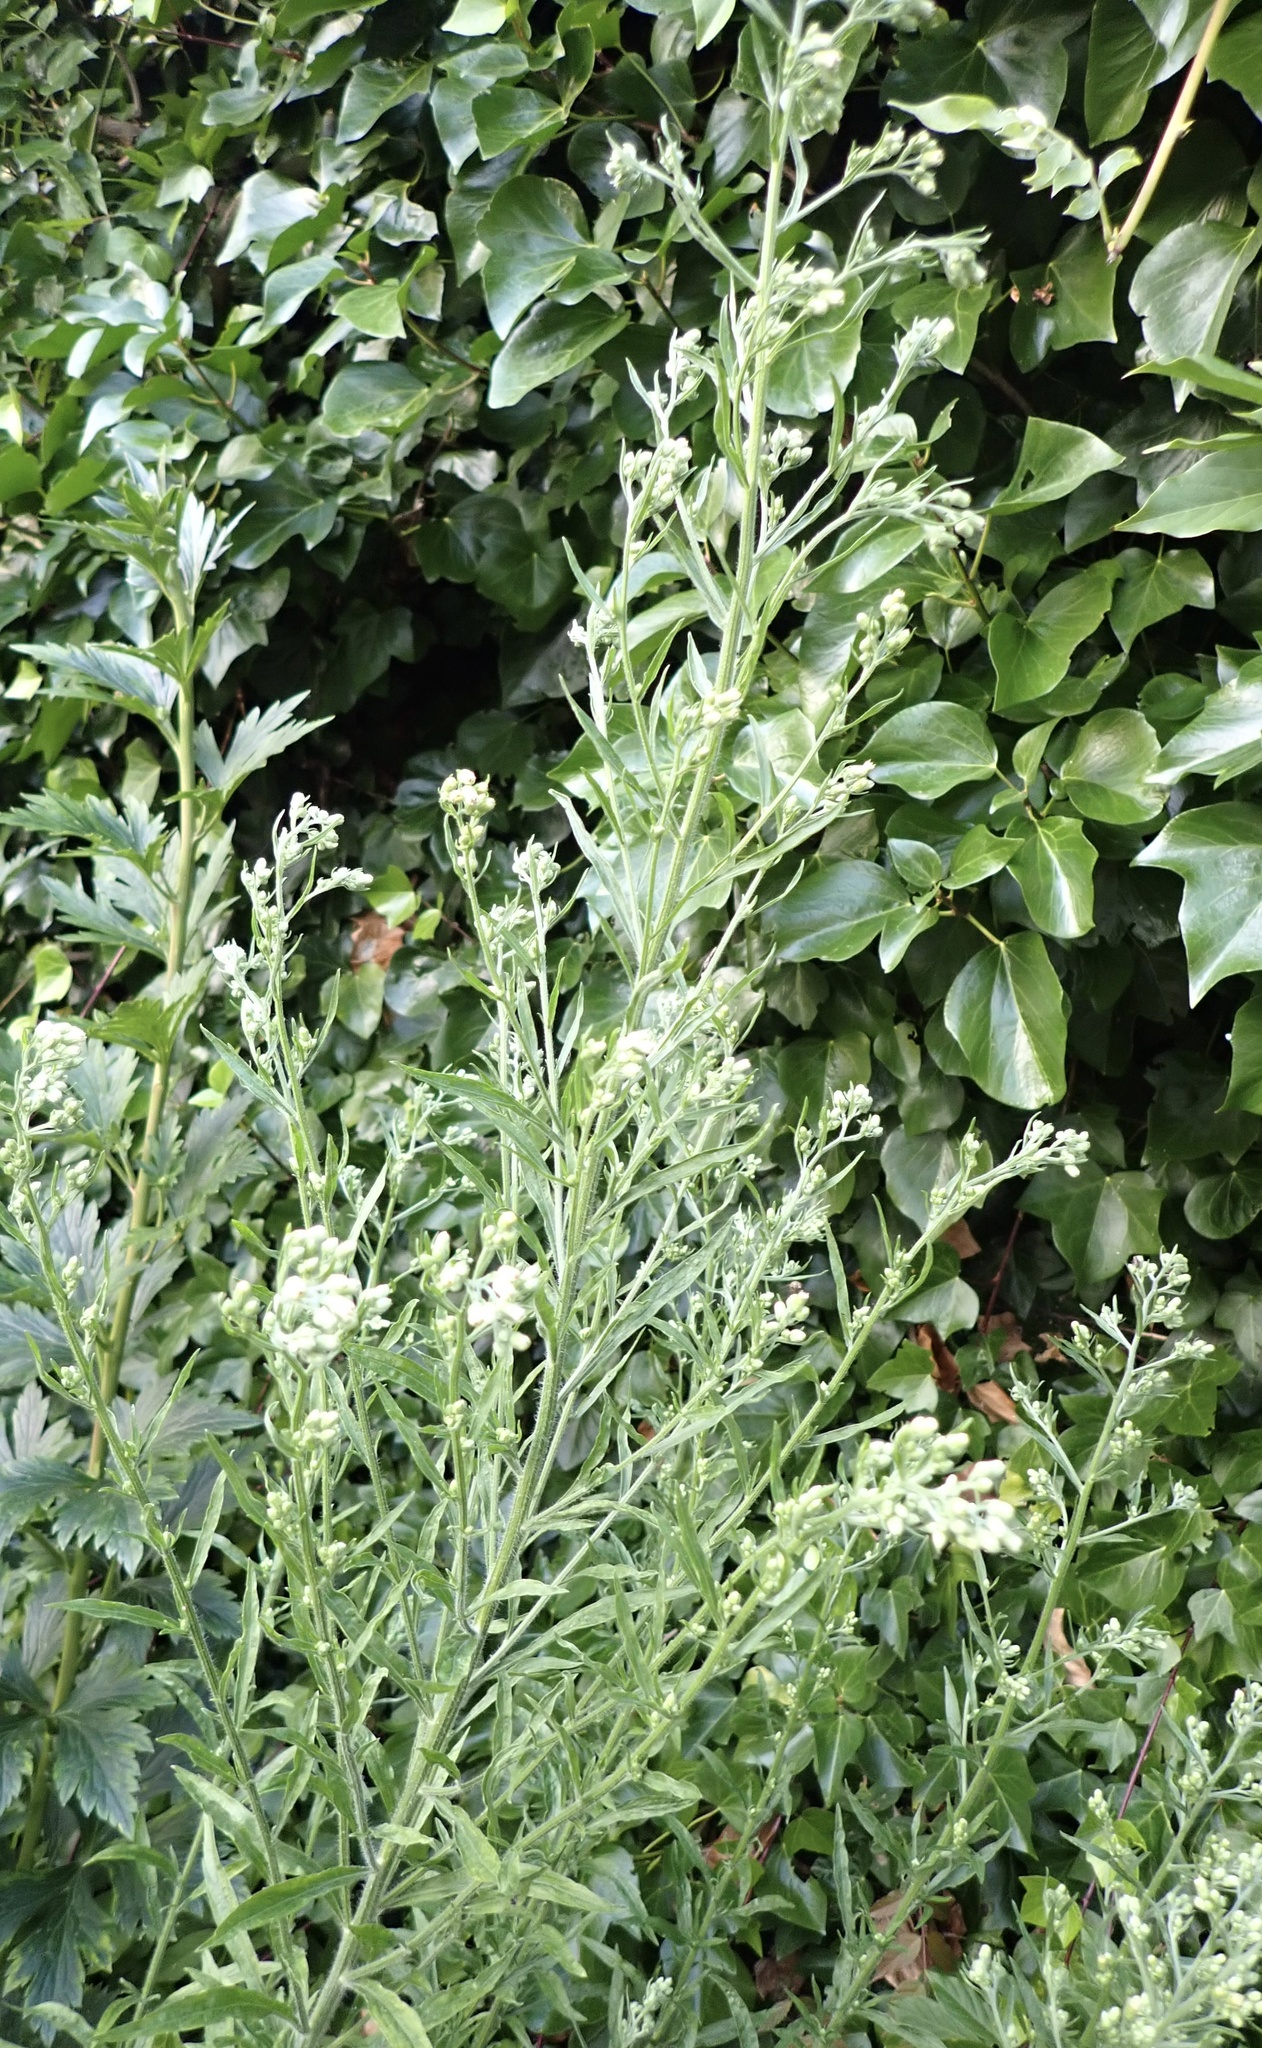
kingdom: Plantae
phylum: Tracheophyta
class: Magnoliopsida
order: Asterales
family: Asteraceae
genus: Erigeron
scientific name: Erigeron sumatrensis
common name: Daisy
